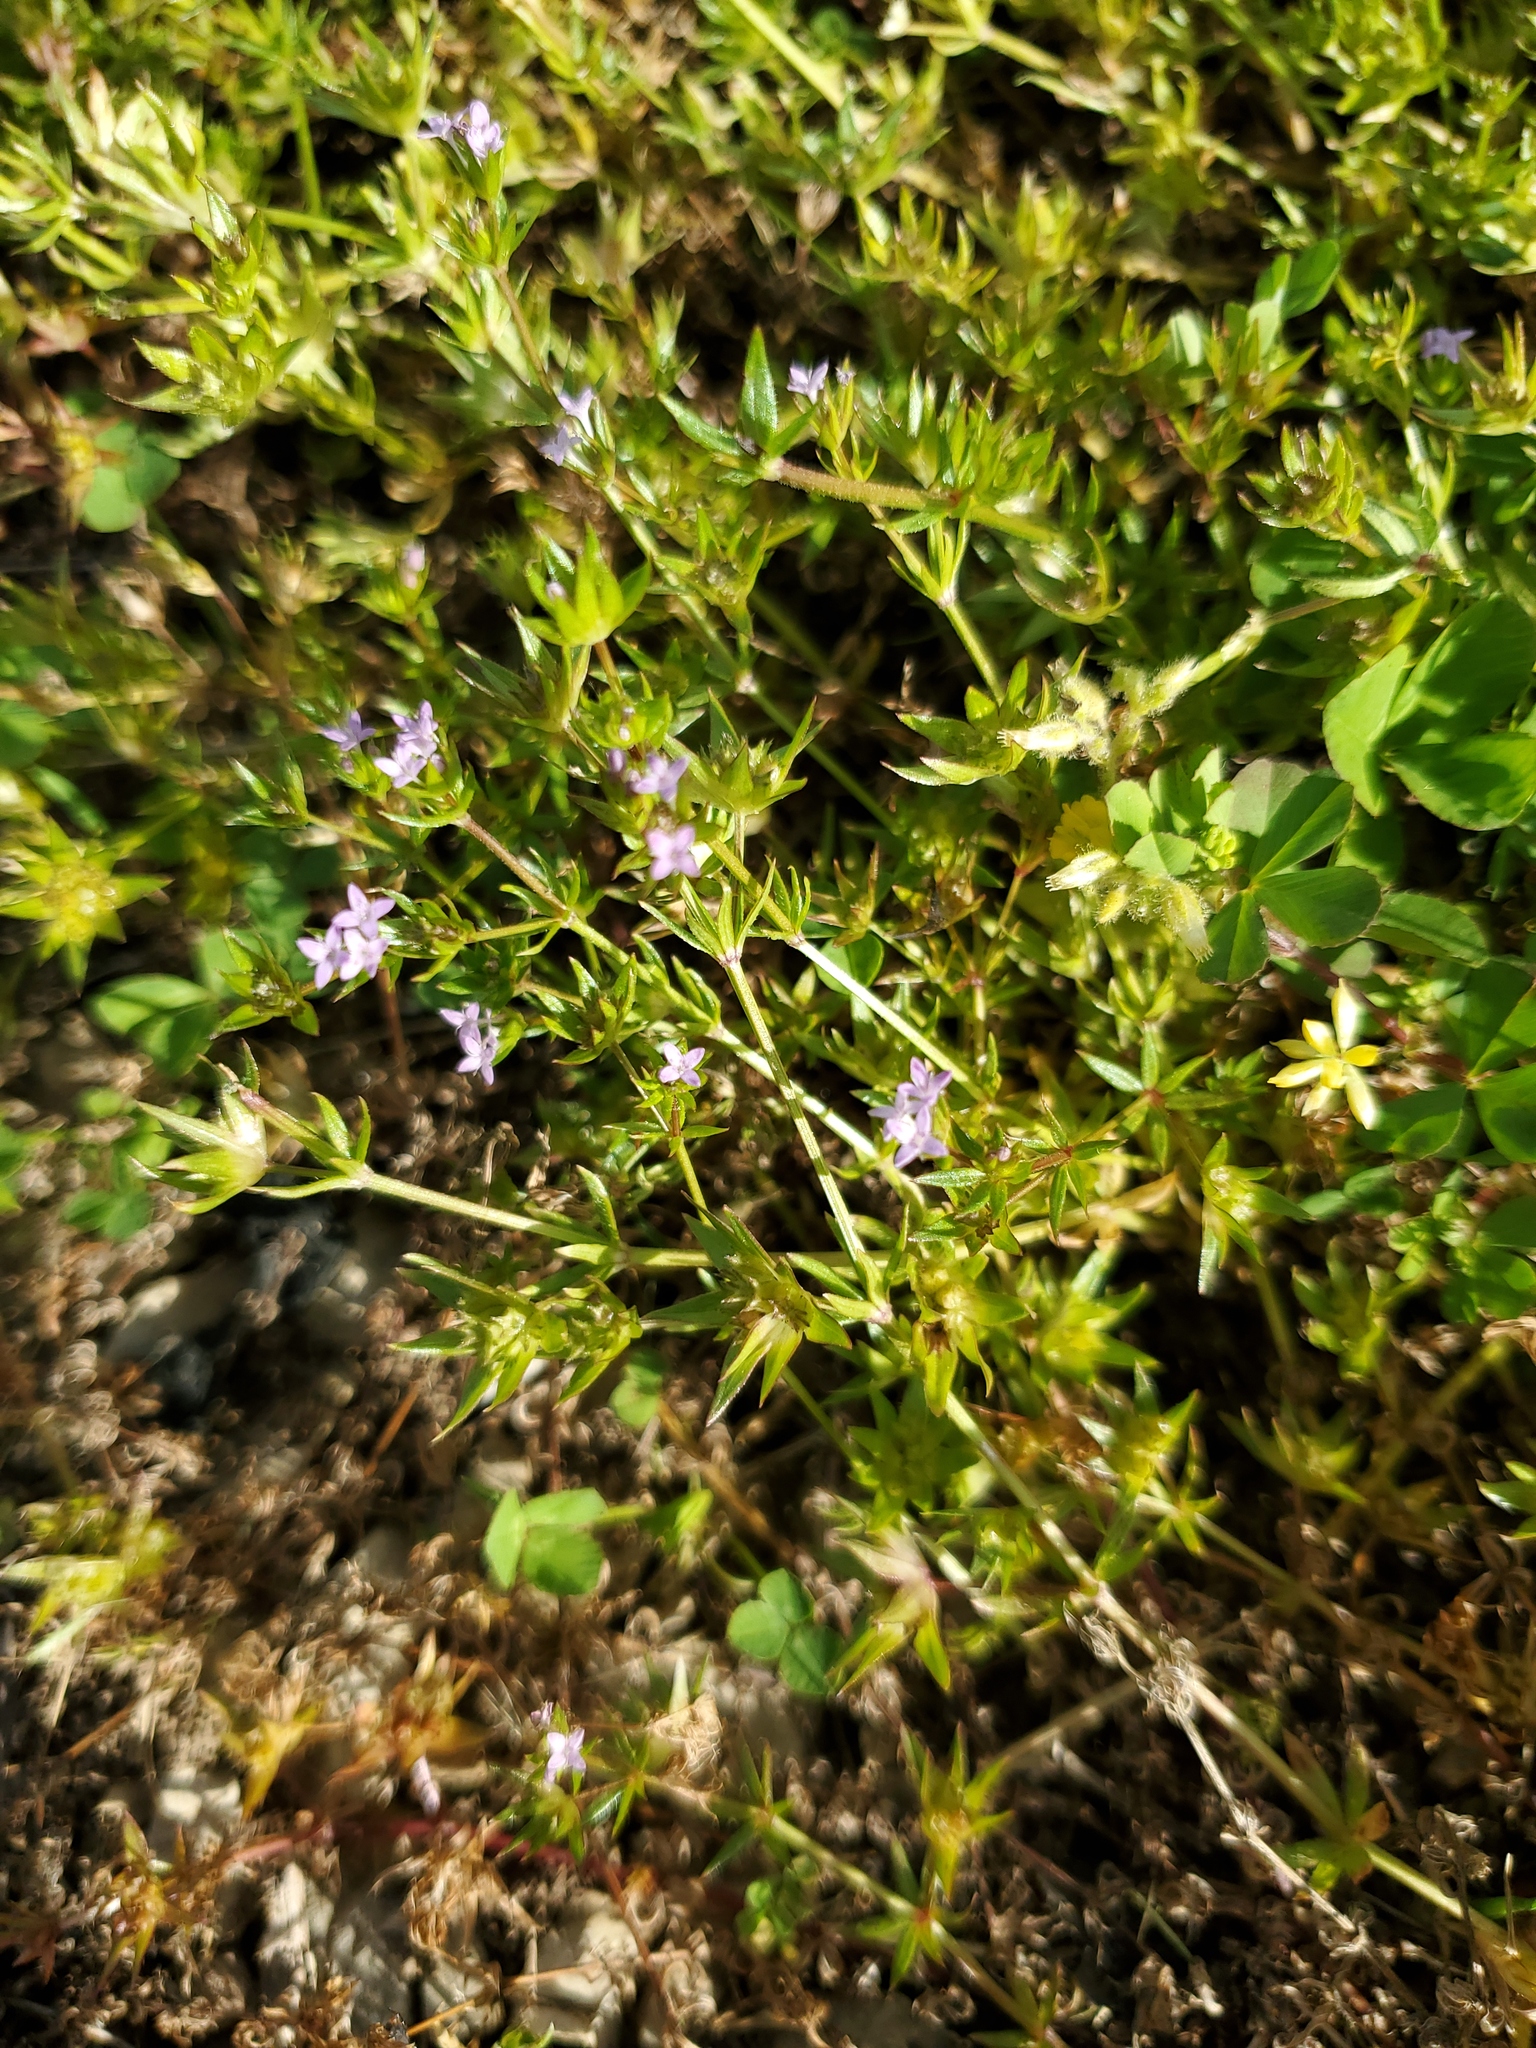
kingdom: Plantae
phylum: Tracheophyta
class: Magnoliopsida
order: Gentianales
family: Rubiaceae
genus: Sherardia
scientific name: Sherardia arvensis
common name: Field madder
